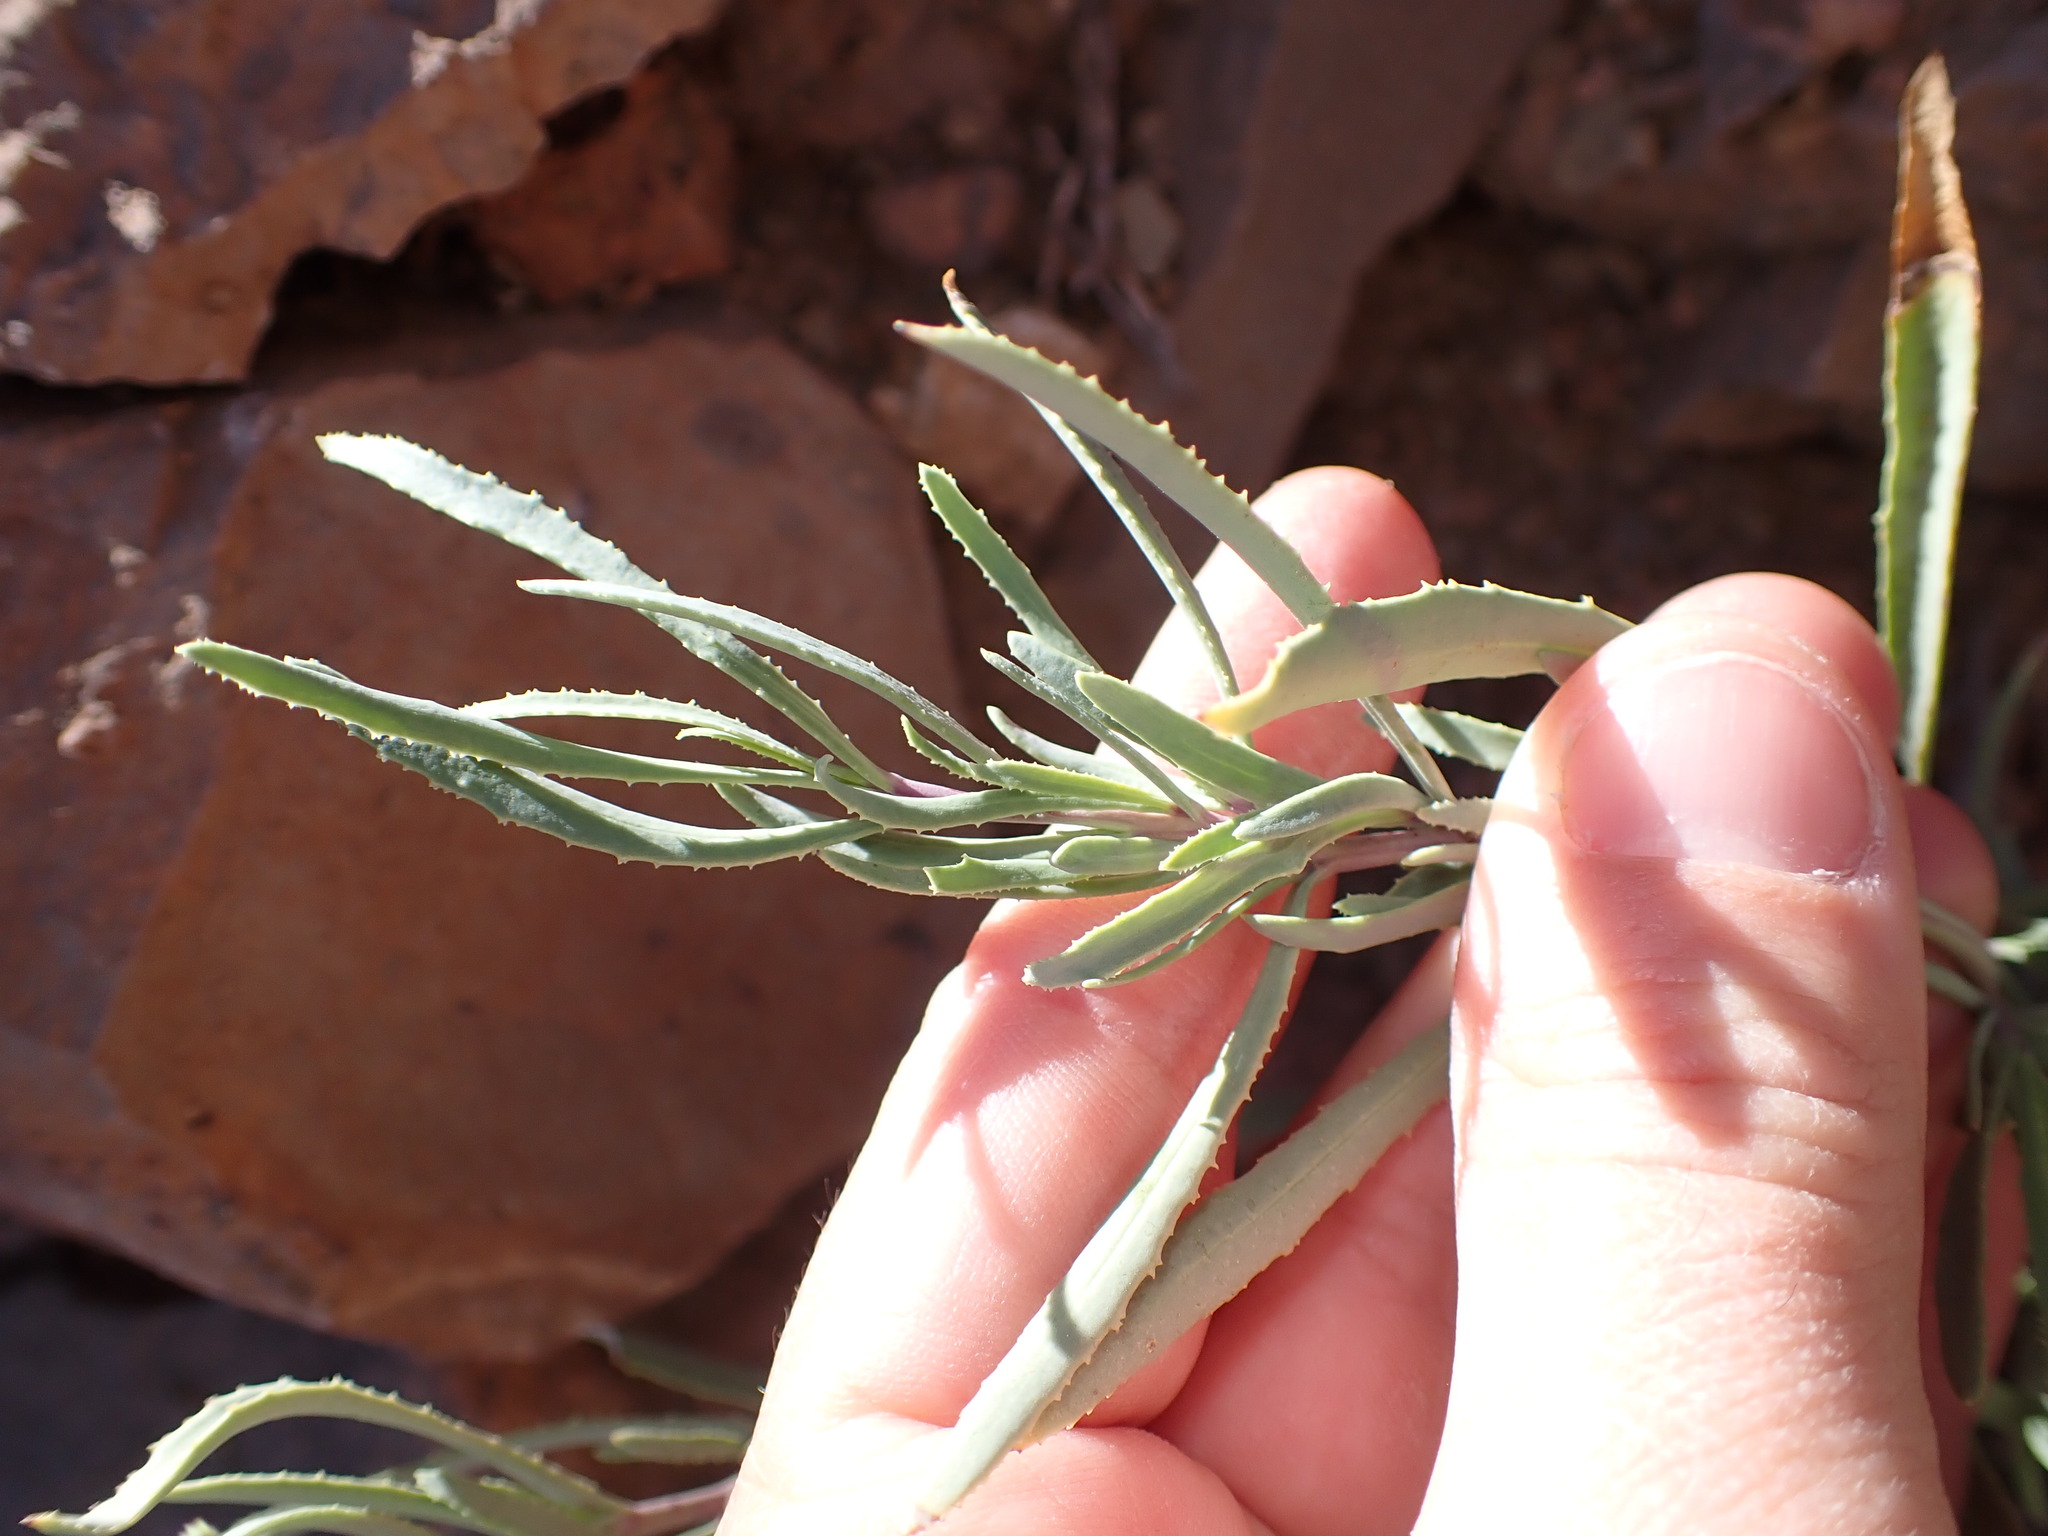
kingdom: Plantae
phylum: Tracheophyta
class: Magnoliopsida
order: Asterales
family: Asteraceae
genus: Hertia
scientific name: Hertia maroccana
